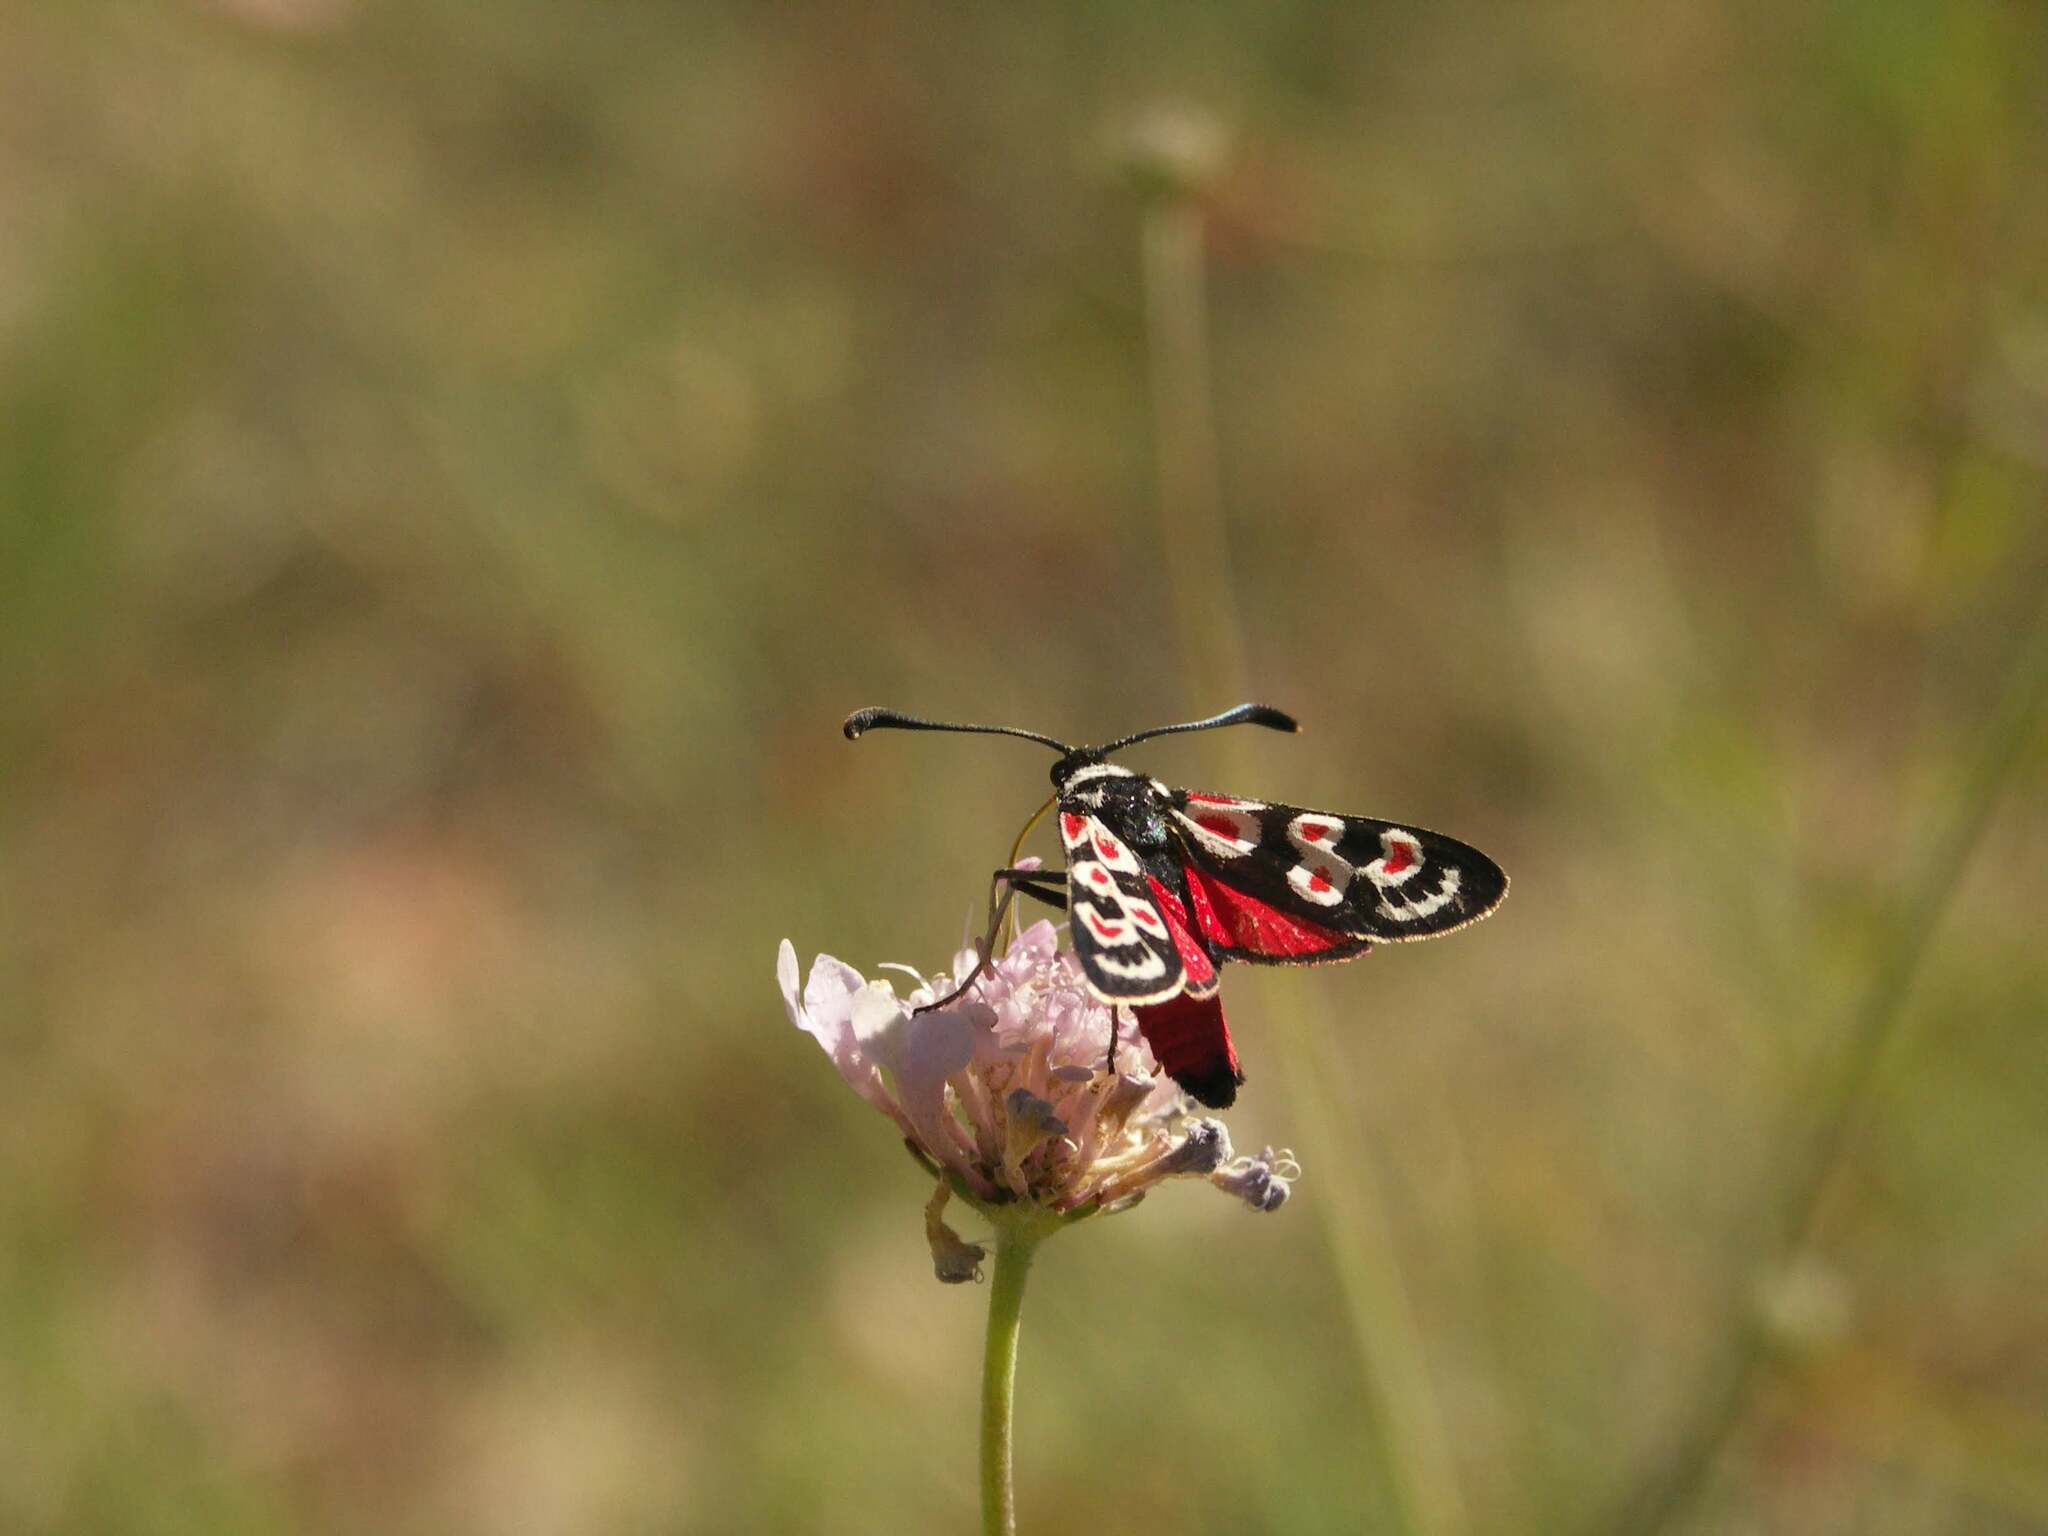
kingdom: Animalia
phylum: Arthropoda
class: Insecta
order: Lepidoptera
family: Zygaenidae
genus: Zygaena
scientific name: Zygaena occitanica
